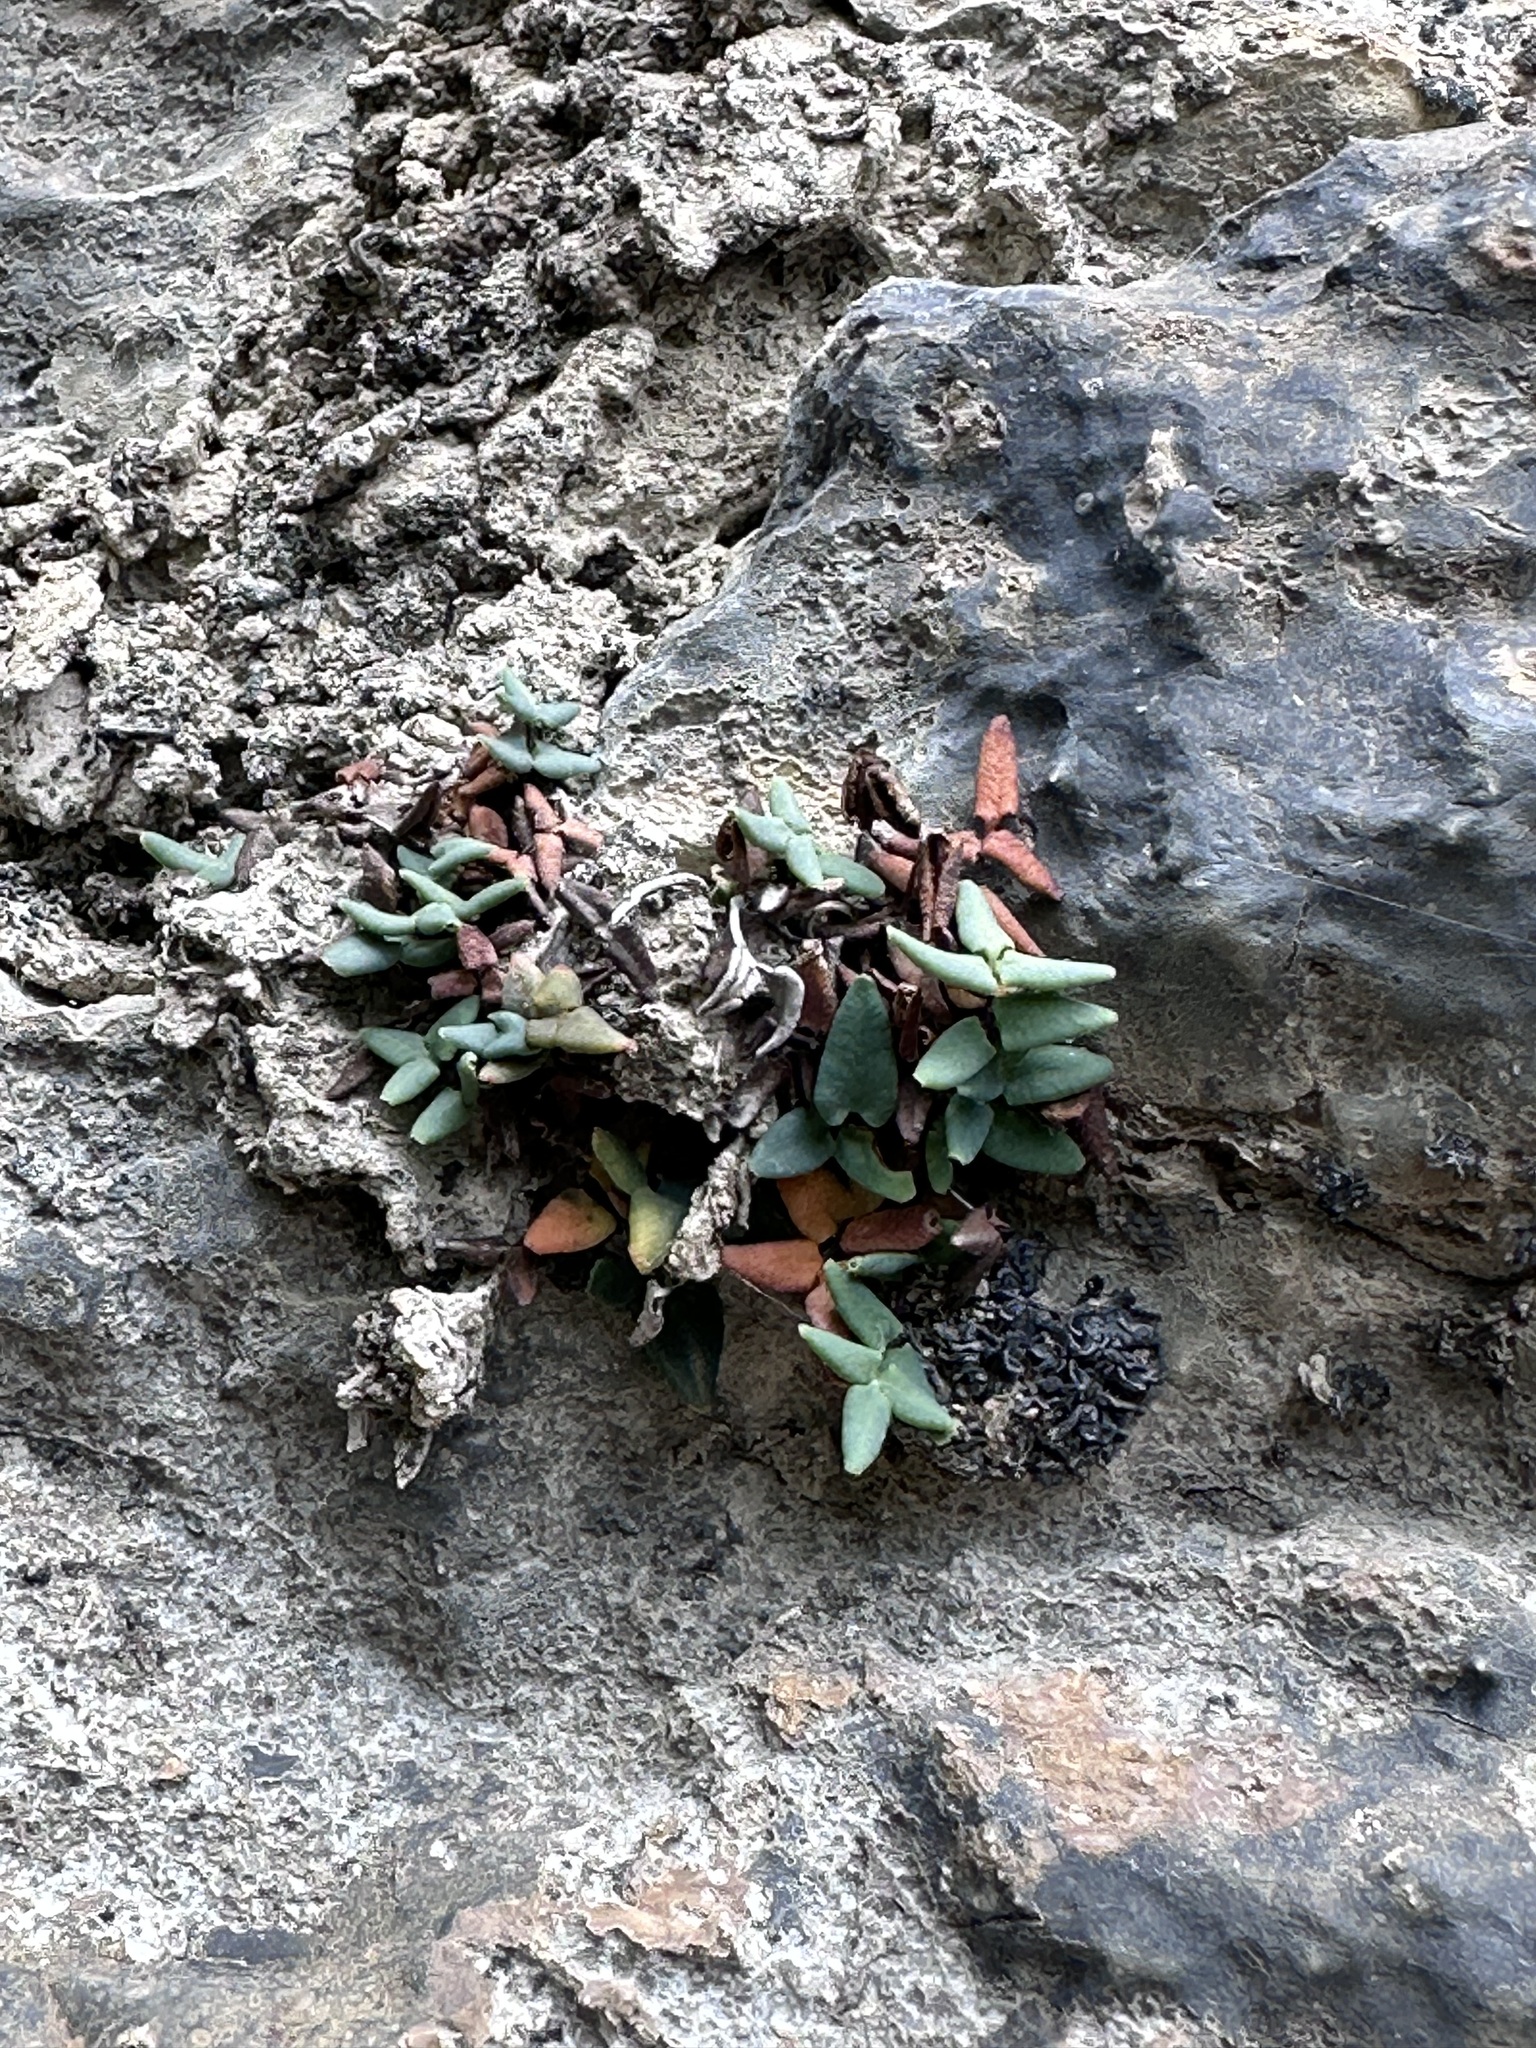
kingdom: Plantae
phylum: Tracheophyta
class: Polypodiopsida
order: Polypodiales
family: Pteridaceae
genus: Pellaea
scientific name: Pellaea glabella
